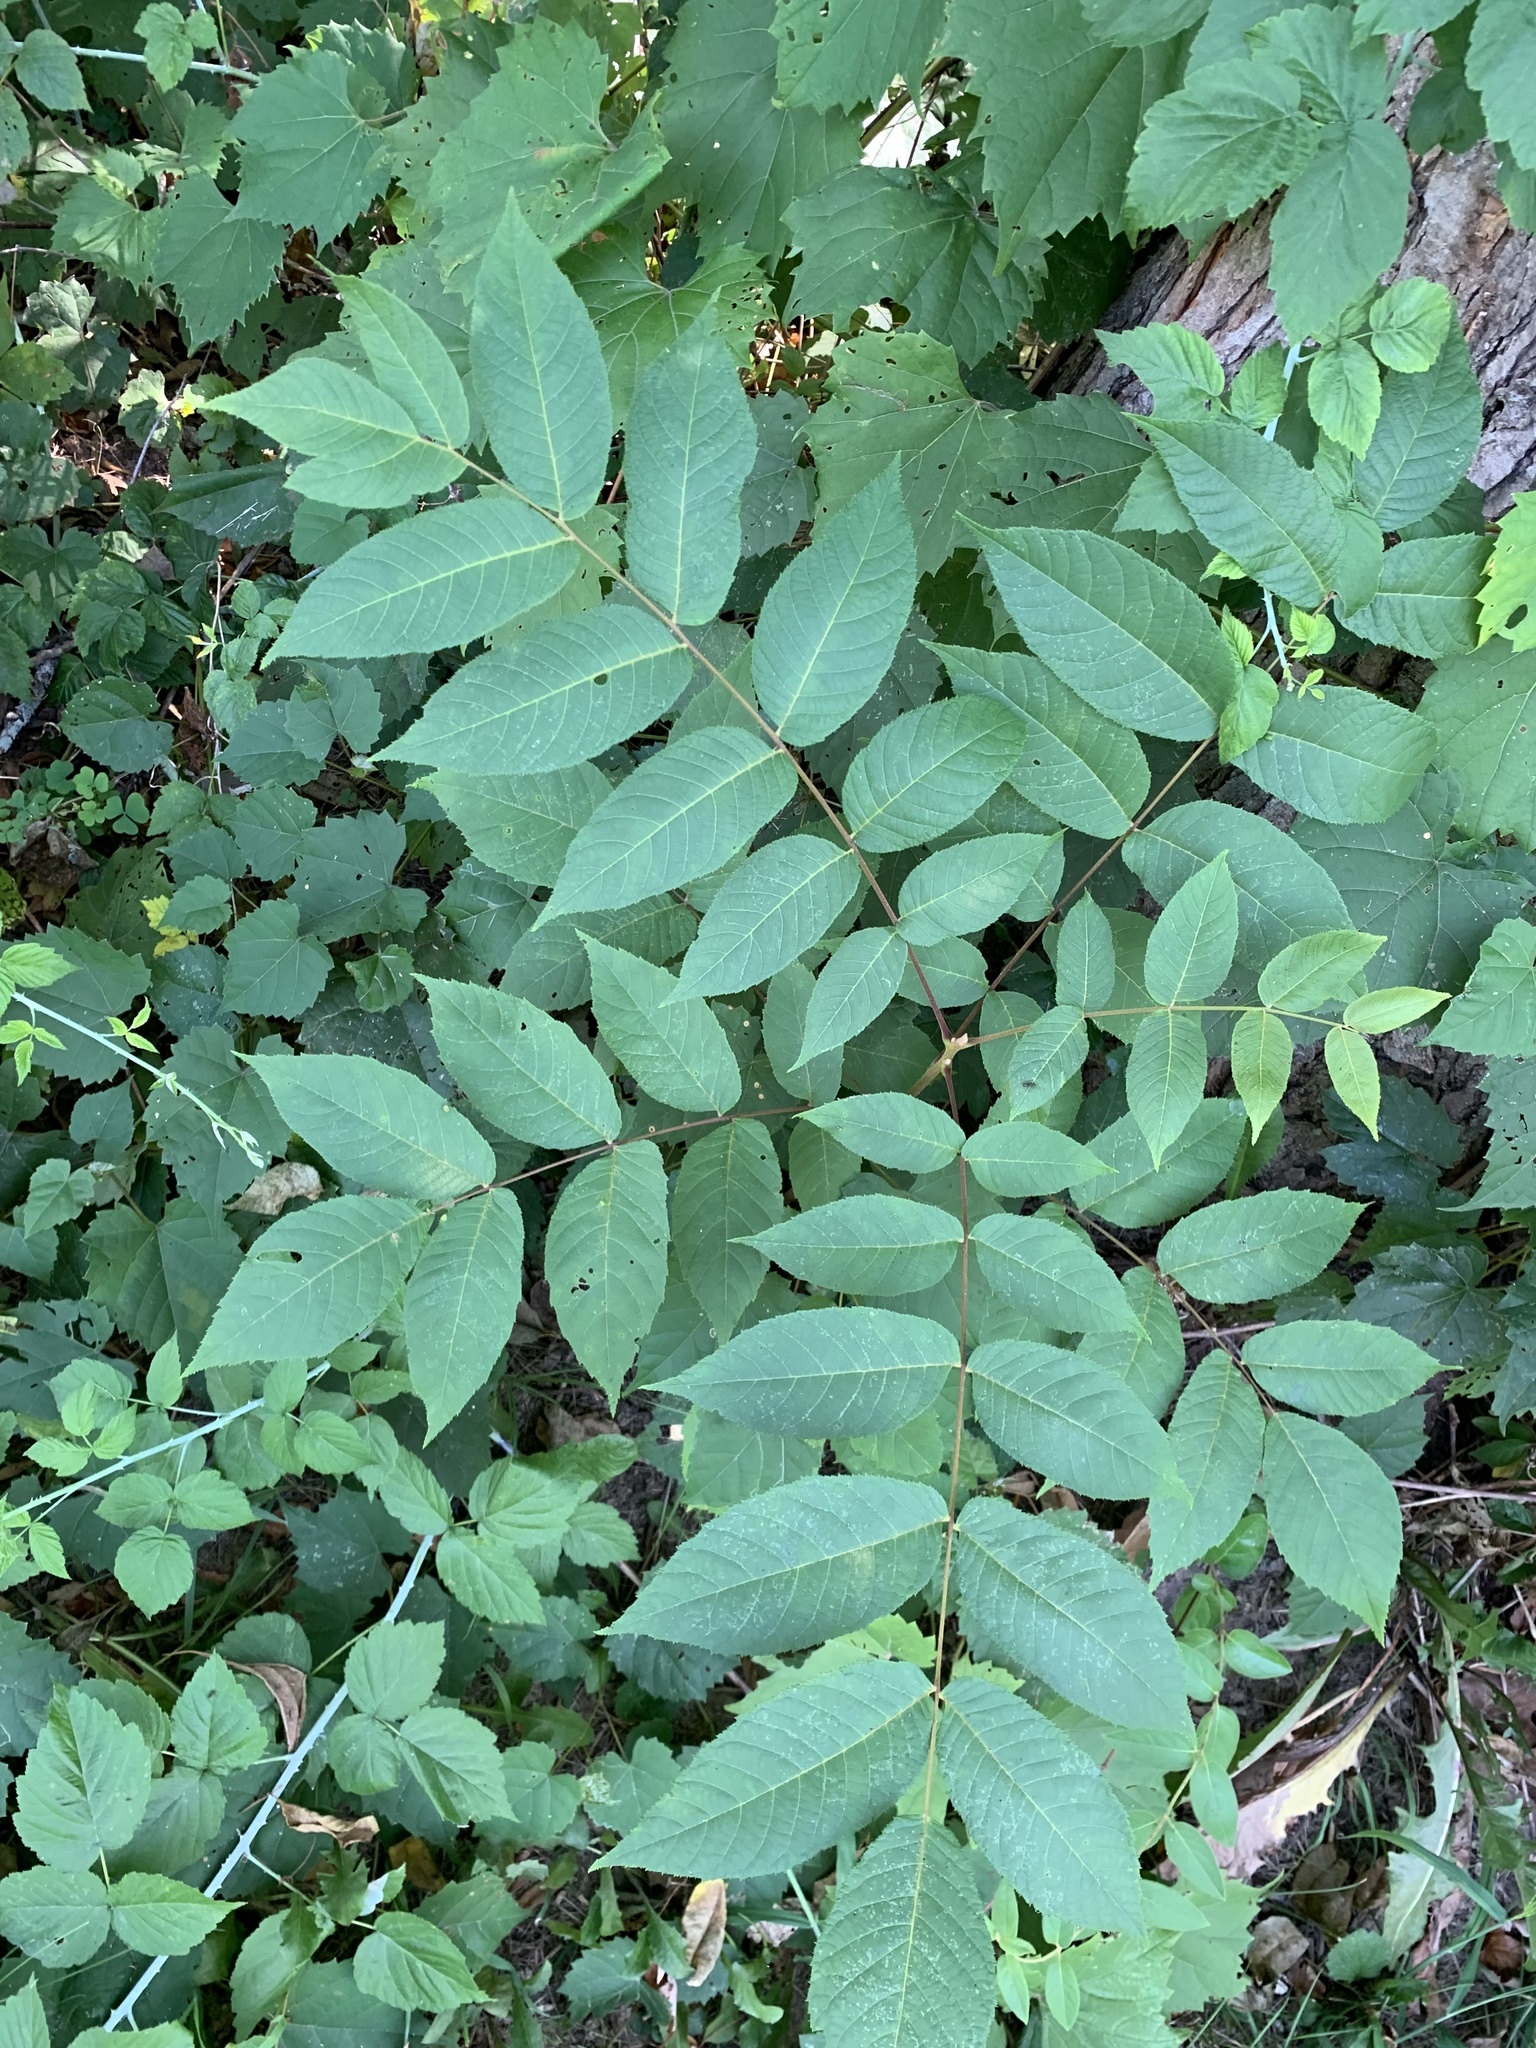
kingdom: Plantae
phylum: Tracheophyta
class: Magnoliopsida
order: Fagales
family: Juglandaceae
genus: Juglans
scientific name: Juglans nigra
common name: Black walnut
